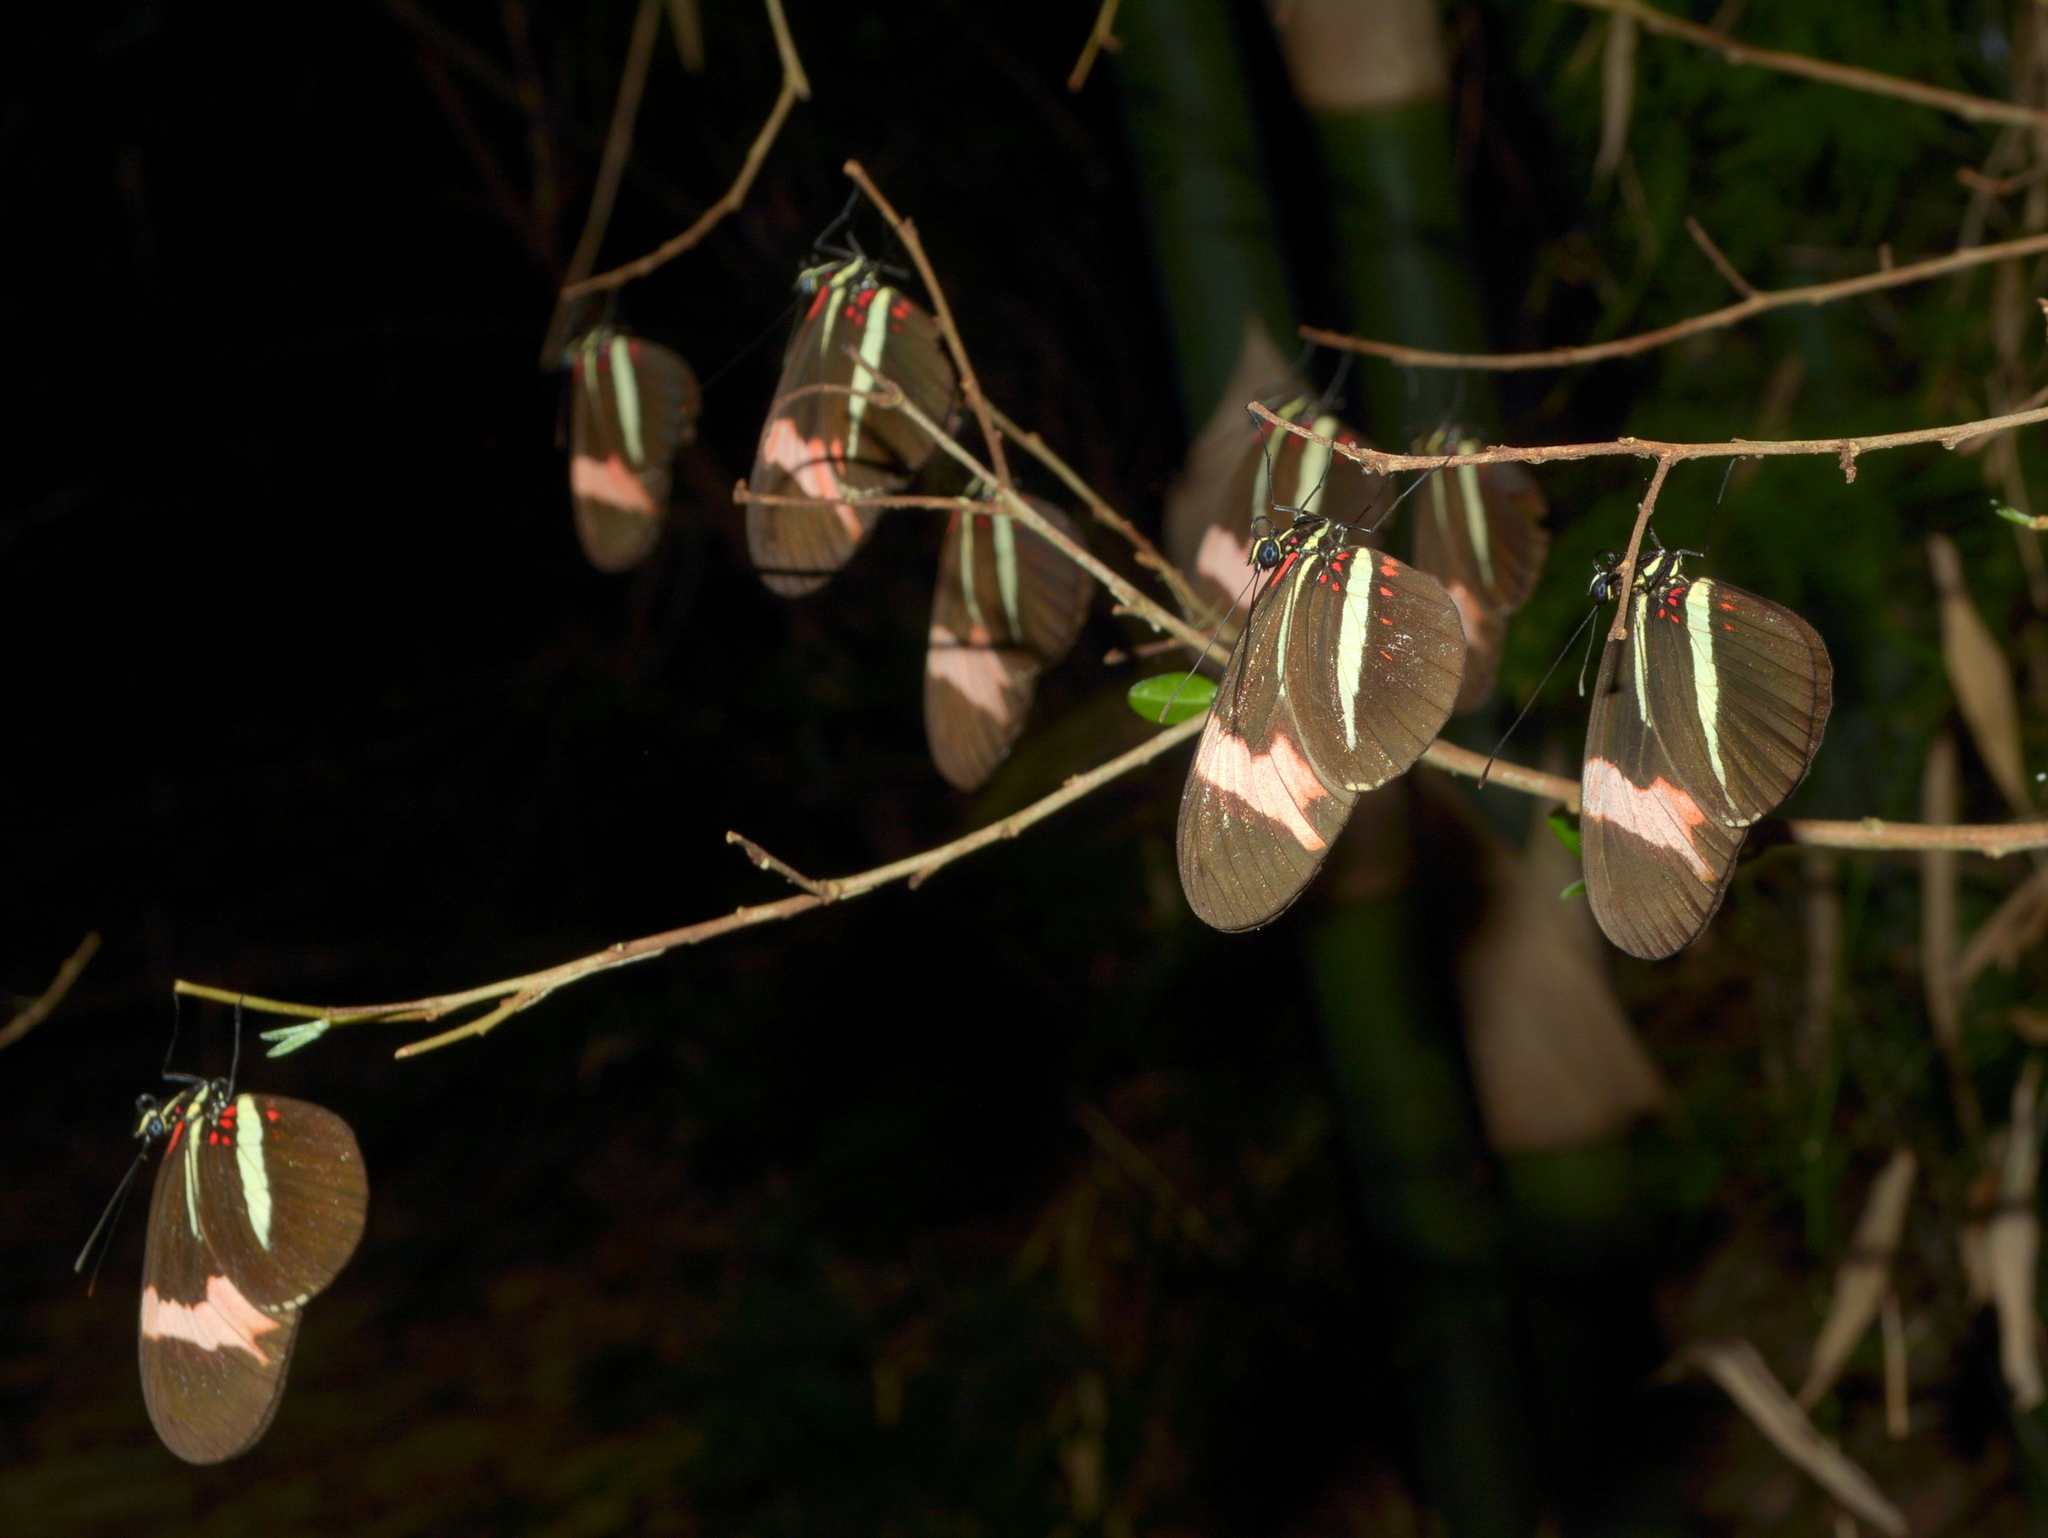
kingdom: Animalia
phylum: Arthropoda
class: Insecta
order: Lepidoptera
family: Nymphalidae
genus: Heliconius
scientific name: Heliconius erato
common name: Common patch longwing
